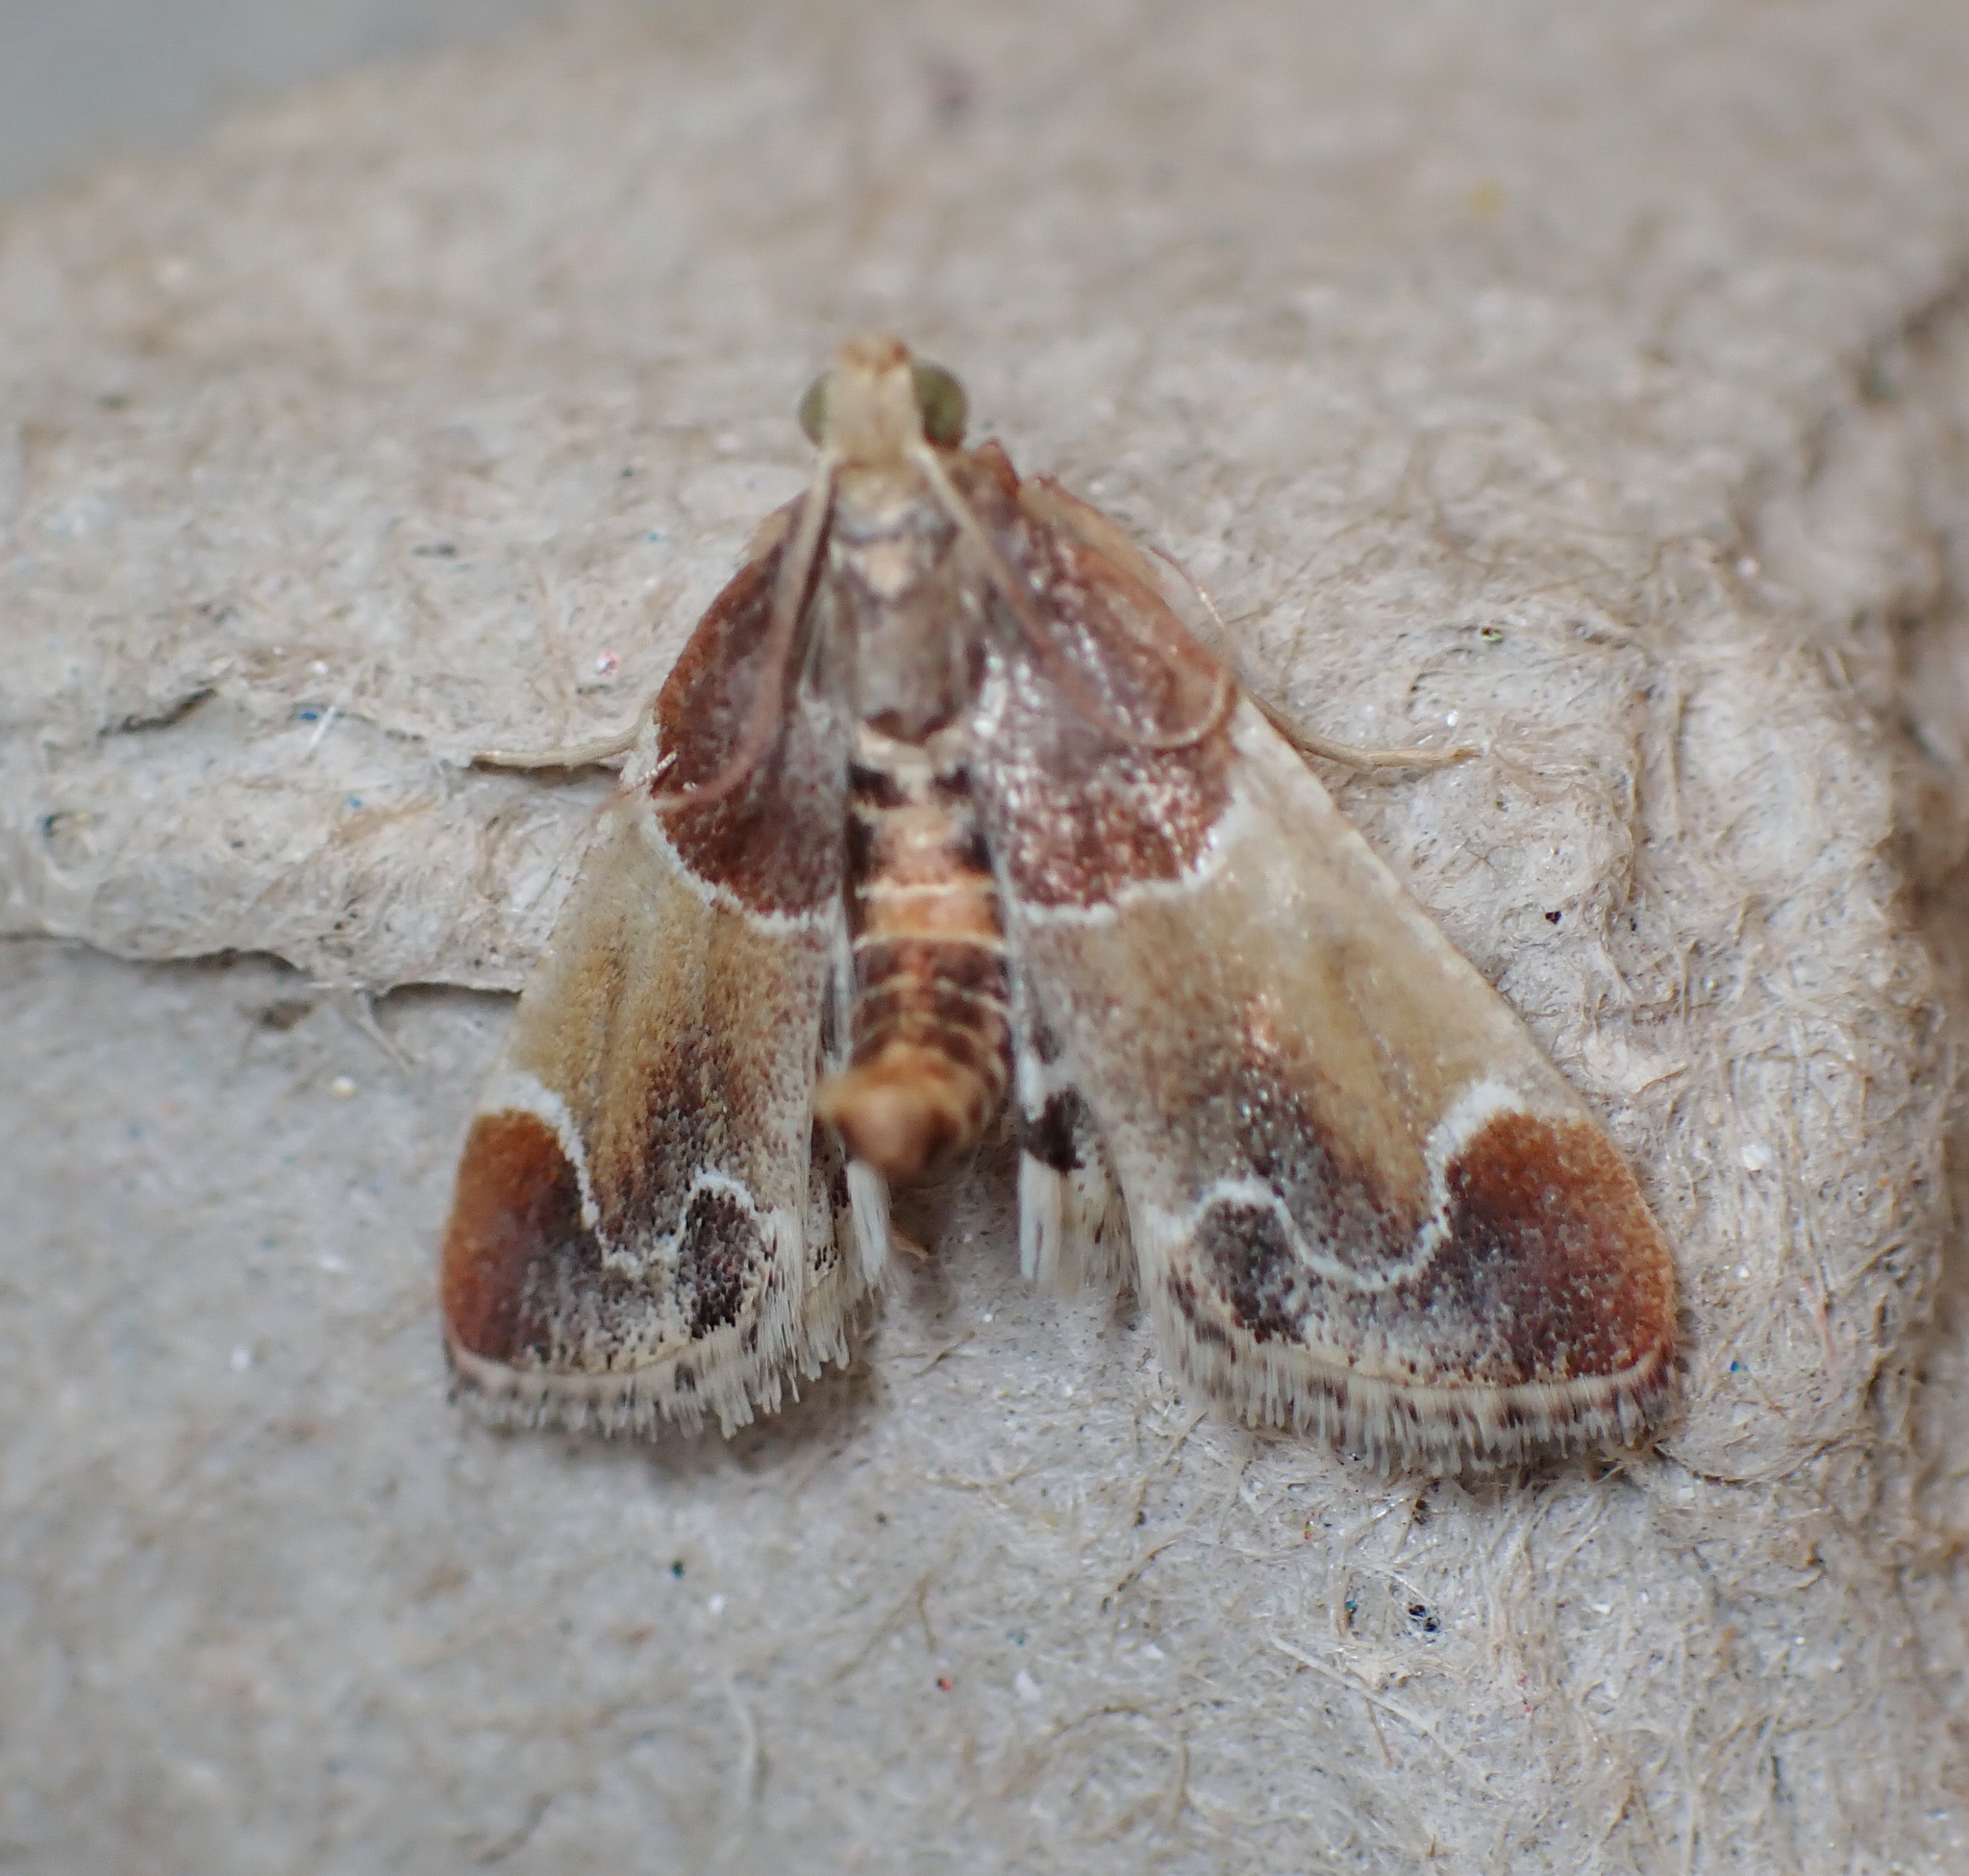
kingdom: Animalia
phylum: Arthropoda
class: Insecta
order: Lepidoptera
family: Pyralidae
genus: Pyralis
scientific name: Pyralis farinalis
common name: Meal moth
